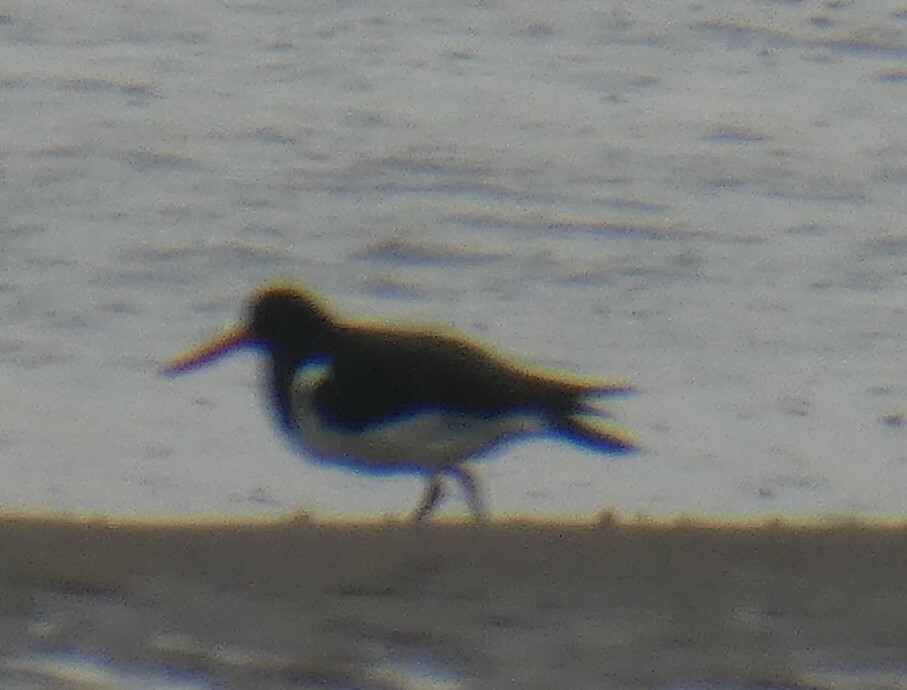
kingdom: Animalia
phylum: Chordata
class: Aves
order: Charadriiformes
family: Haematopodidae
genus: Haematopus
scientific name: Haematopus ostralegus
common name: Eurasian oystercatcher
